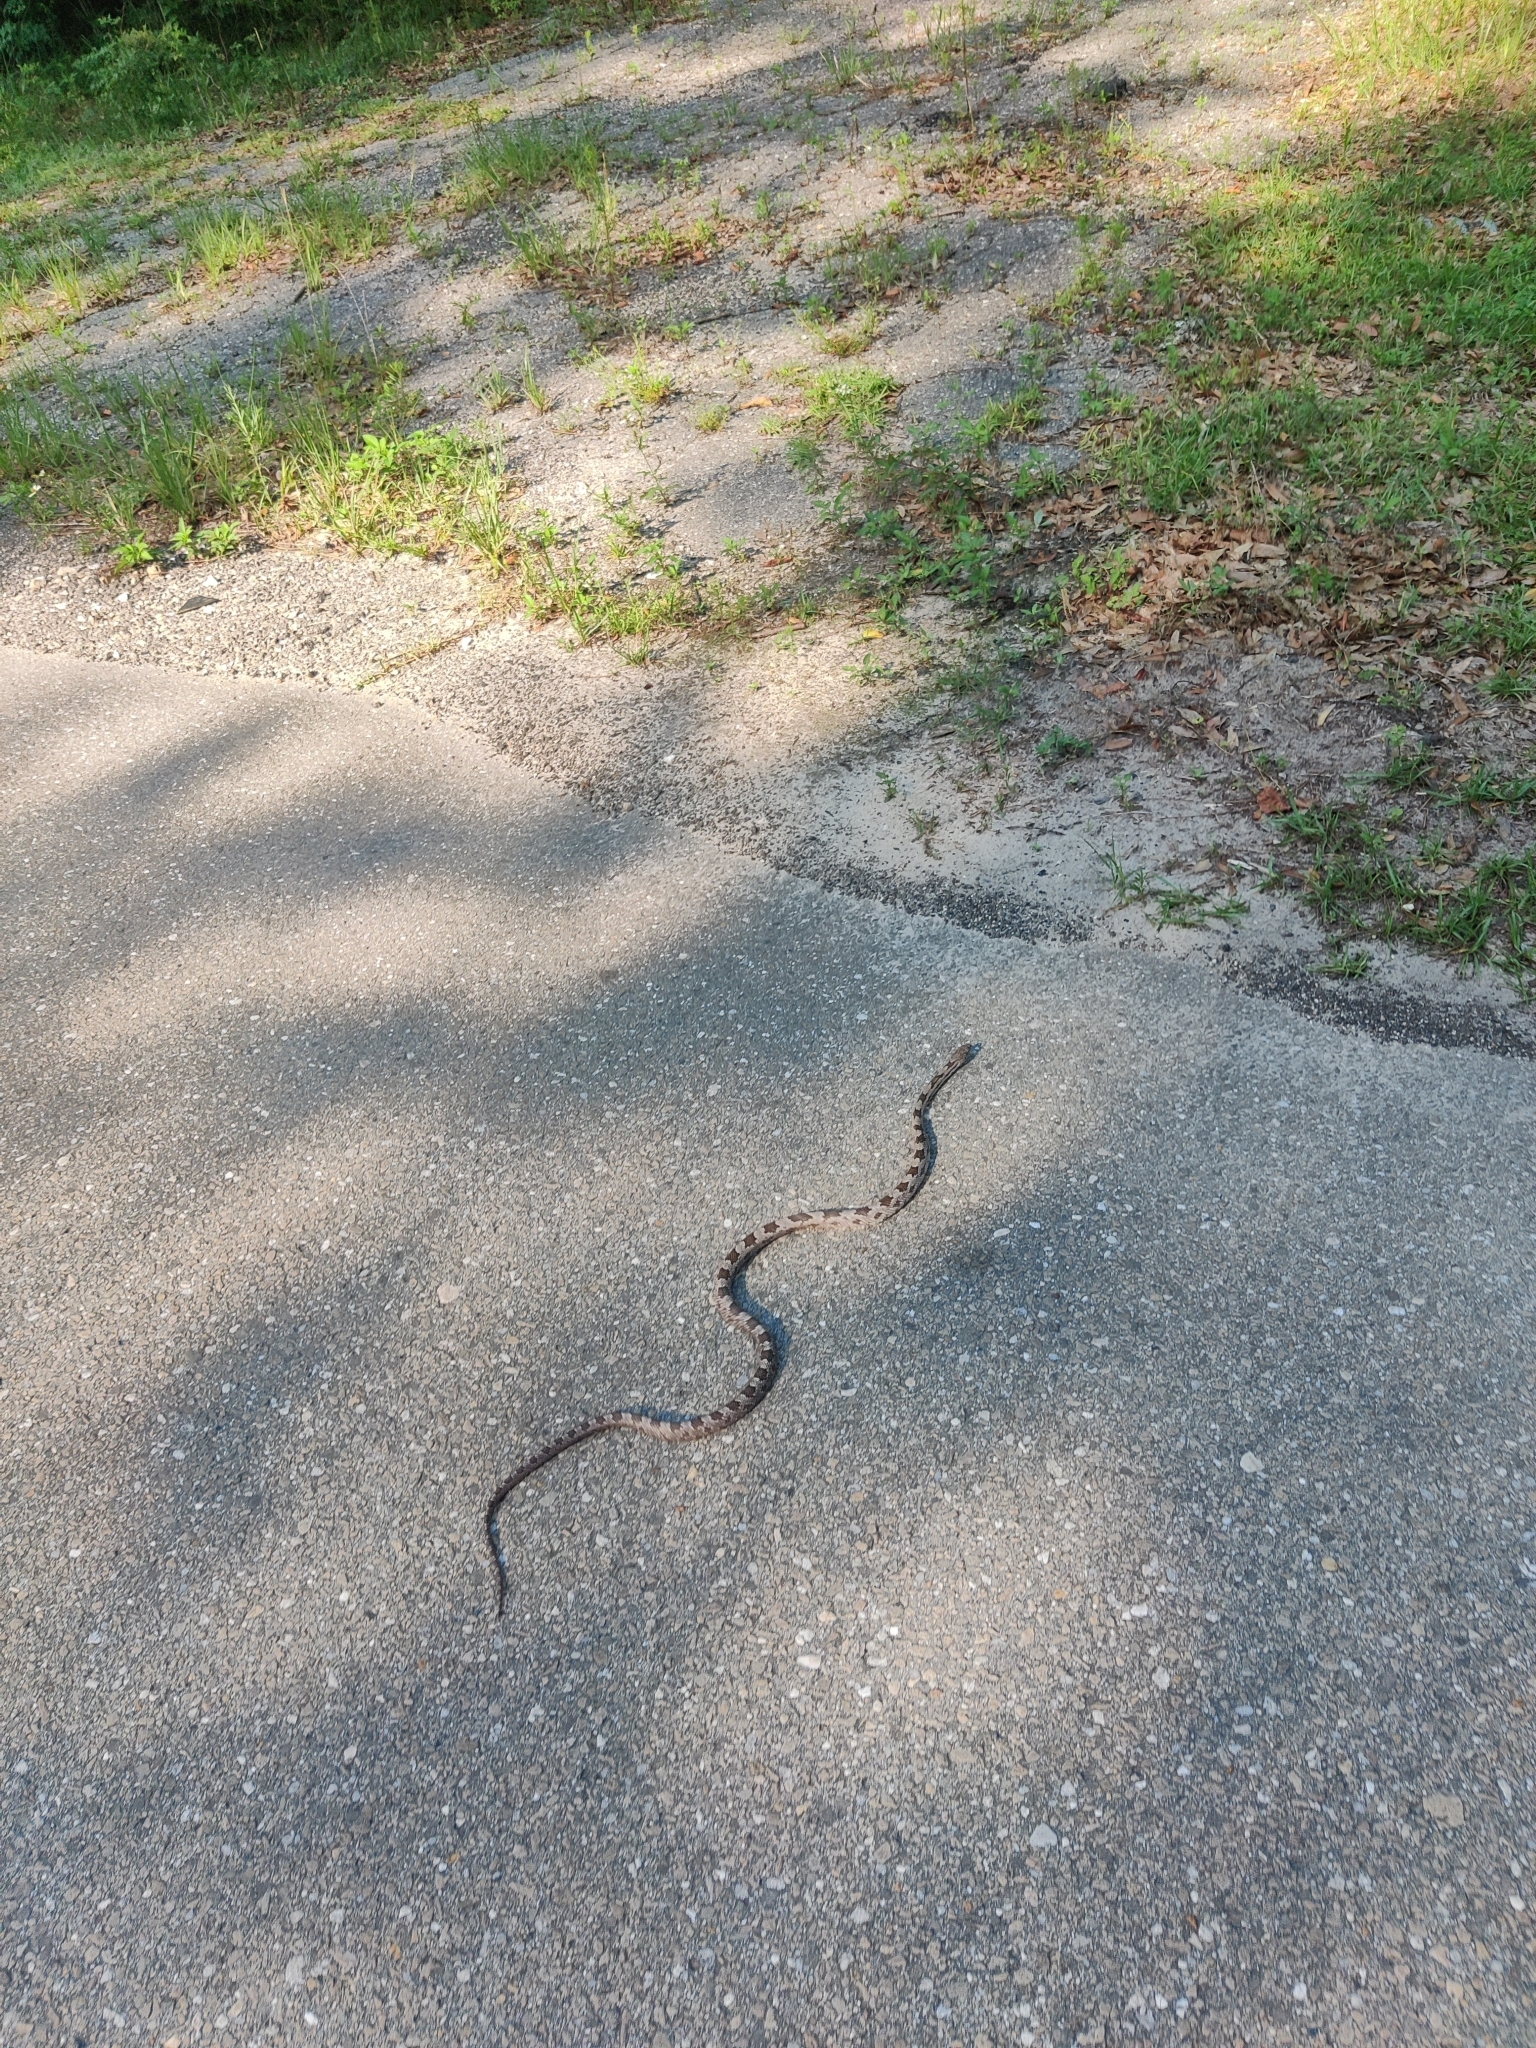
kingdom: Animalia
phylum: Chordata
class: Squamata
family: Colubridae
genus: Pantherophis
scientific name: Pantherophis spiloides
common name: Gray rat snake
